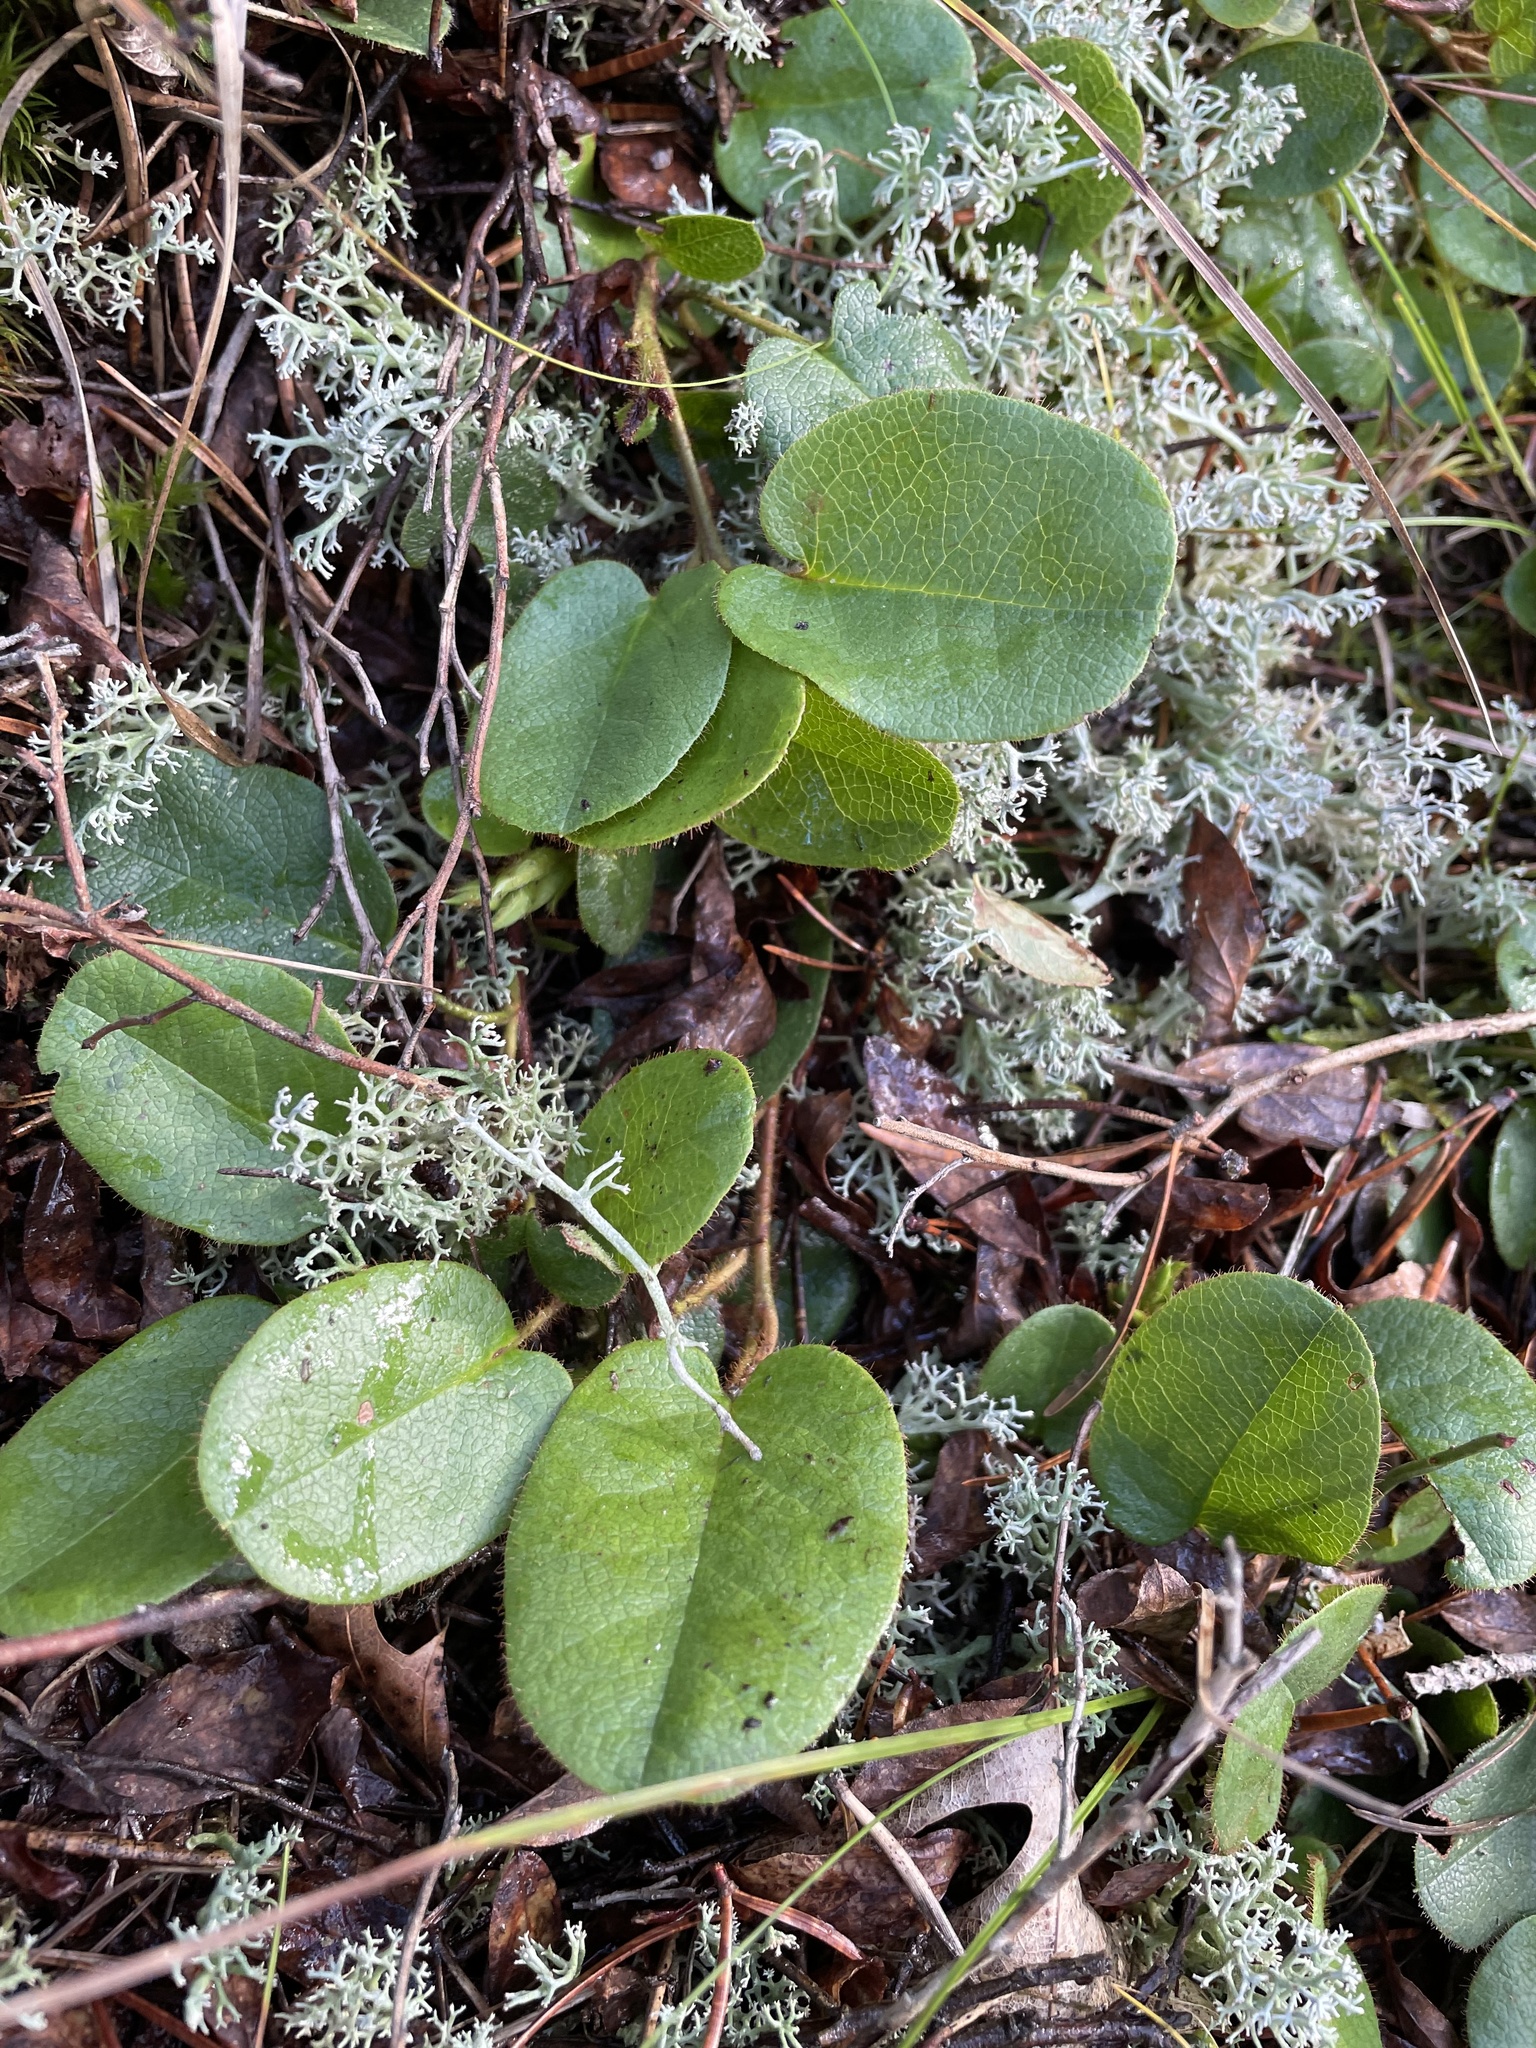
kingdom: Plantae
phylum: Tracheophyta
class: Magnoliopsida
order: Ericales
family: Ericaceae
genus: Epigaea
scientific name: Epigaea repens
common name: Gravelroot
